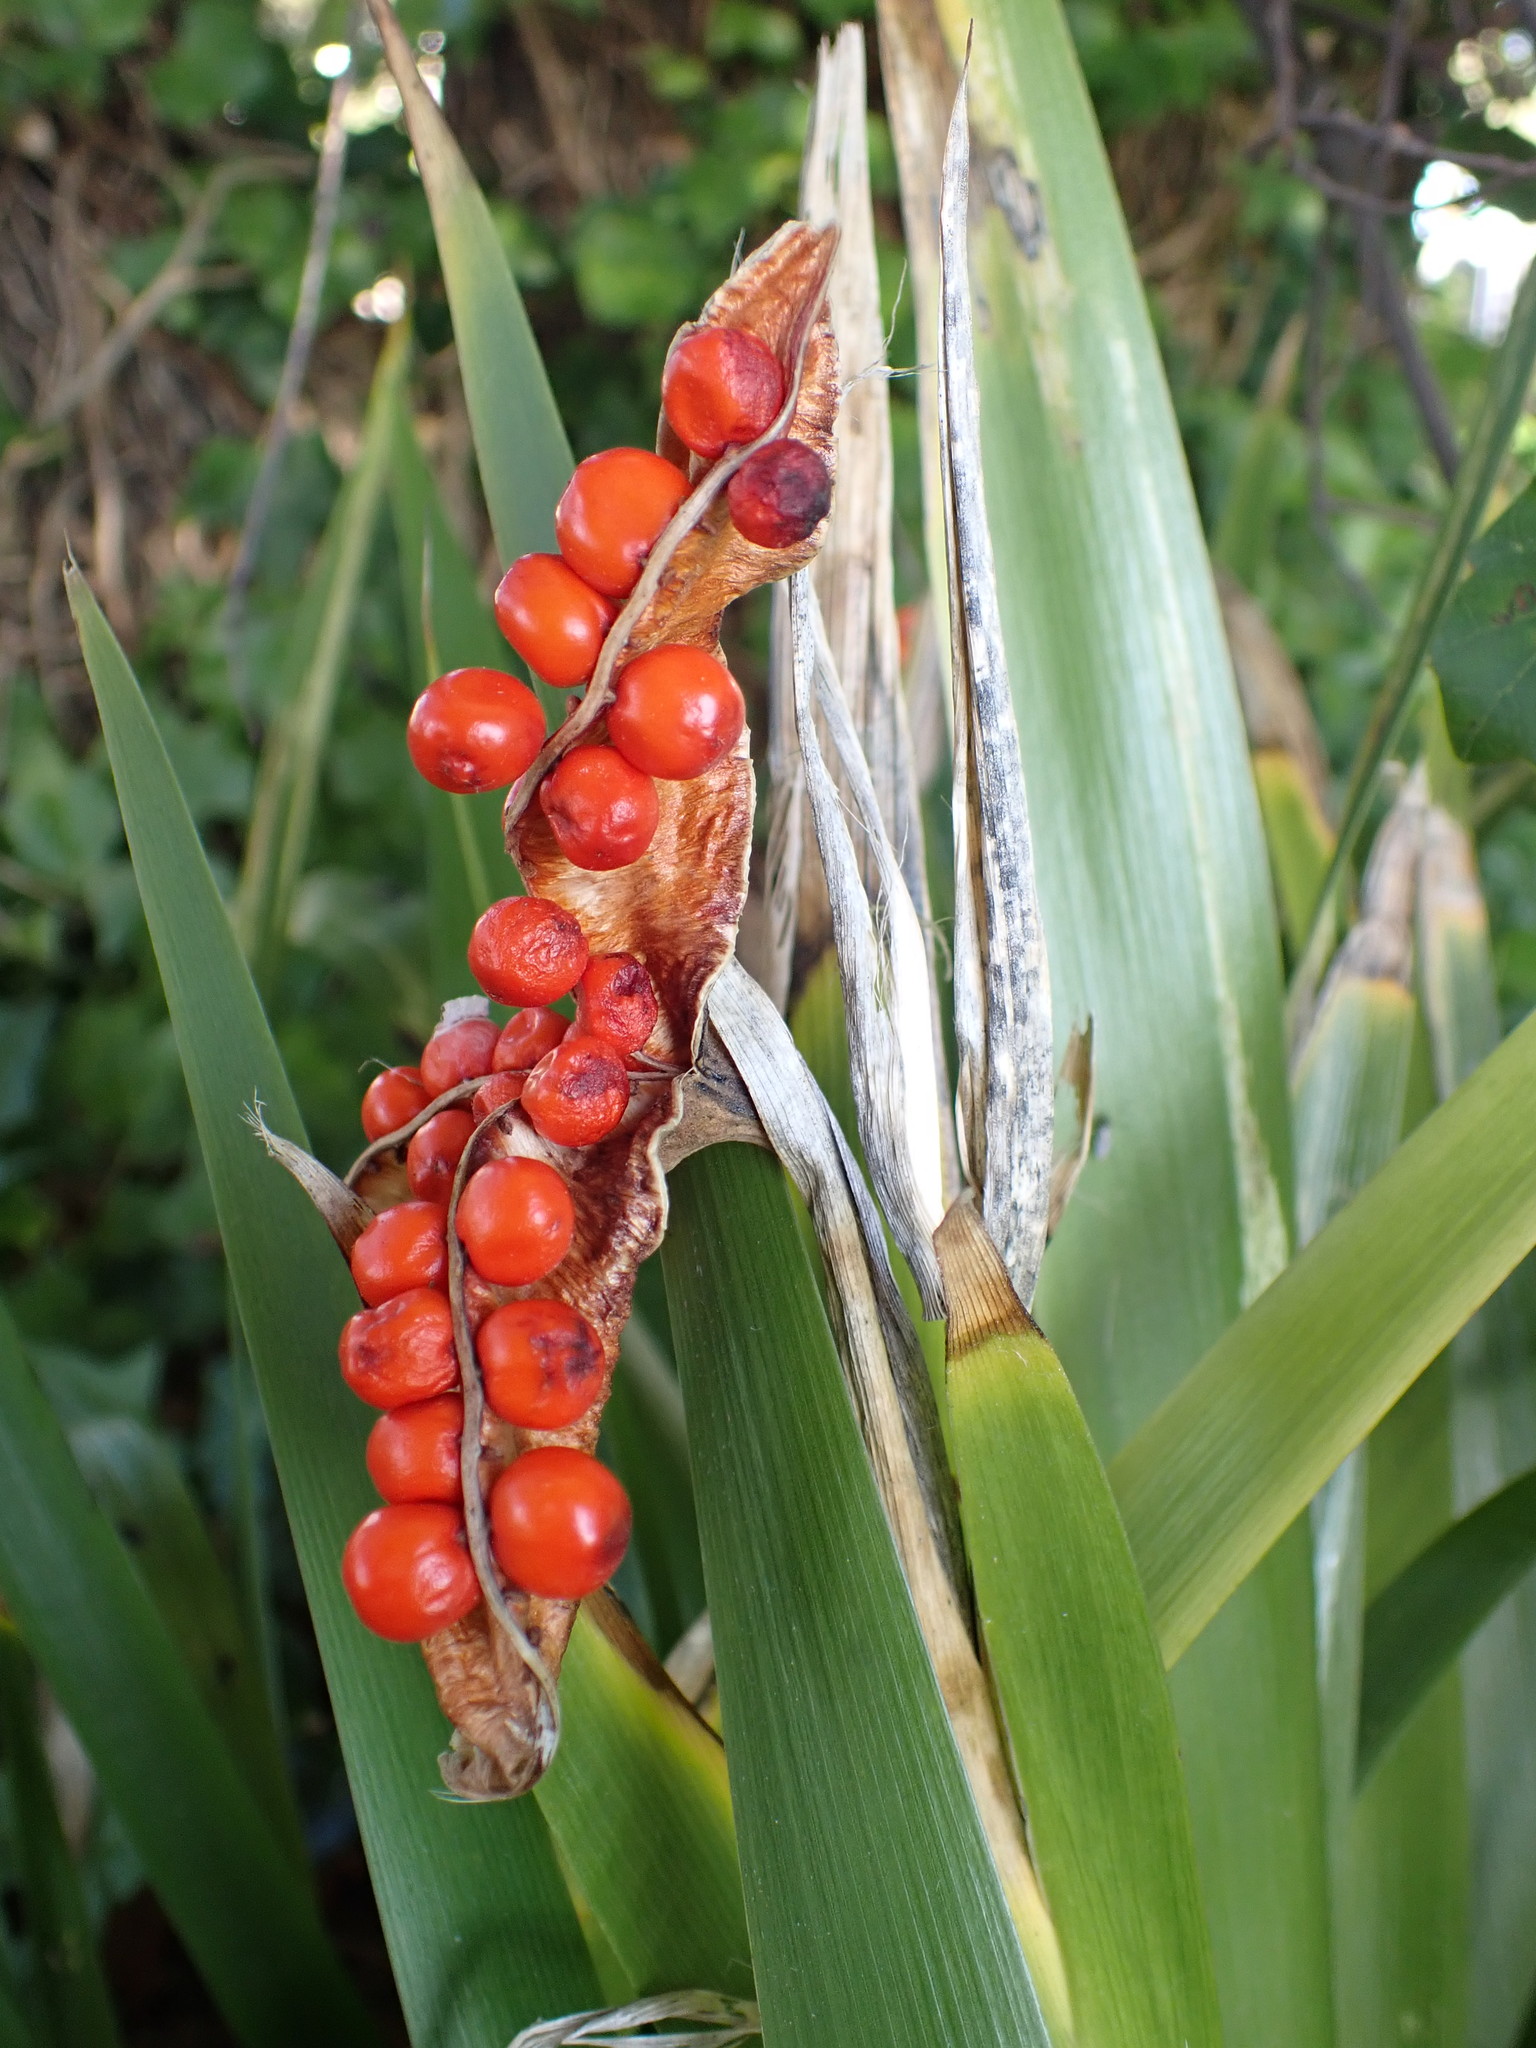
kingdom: Plantae
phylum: Tracheophyta
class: Liliopsida
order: Asparagales
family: Iridaceae
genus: Iris
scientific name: Iris foetidissima
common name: Stinking iris
